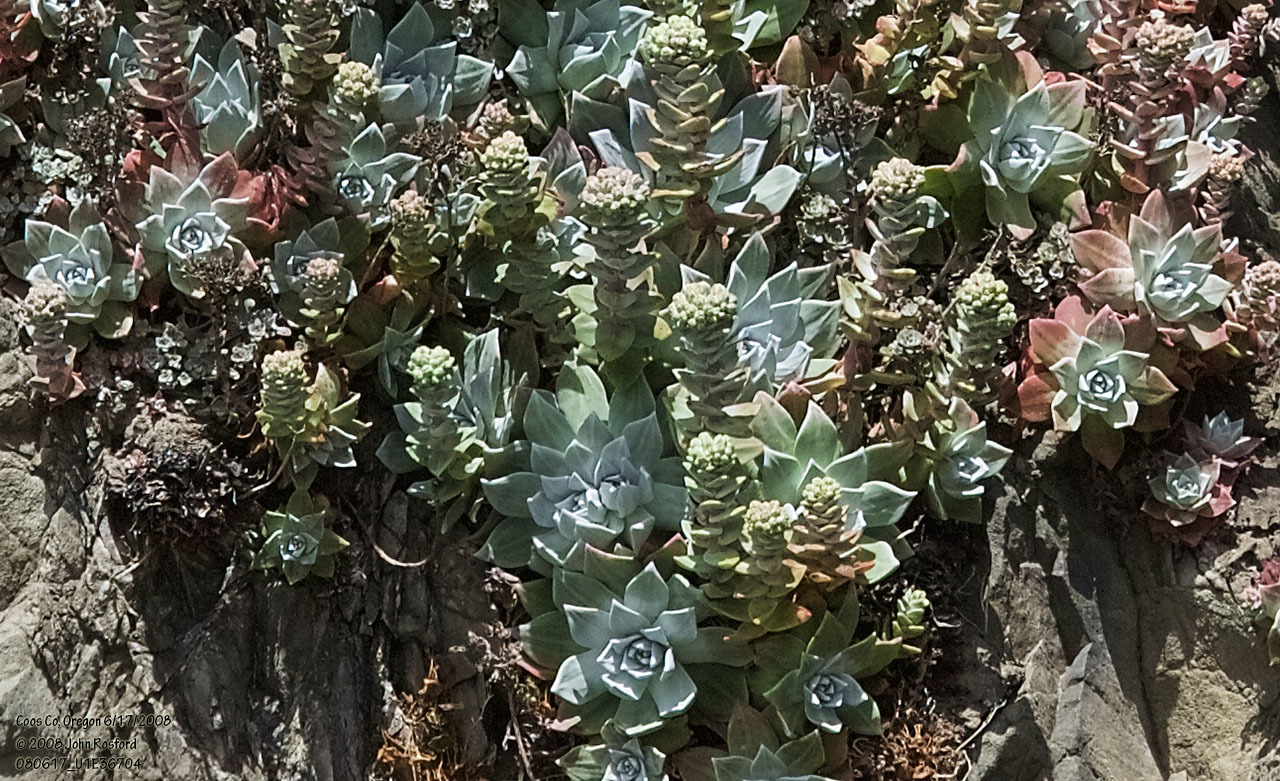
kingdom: Plantae
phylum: Tracheophyta
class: Magnoliopsida
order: Saxifragales
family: Crassulaceae
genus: Dudleya
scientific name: Dudleya farinosa
